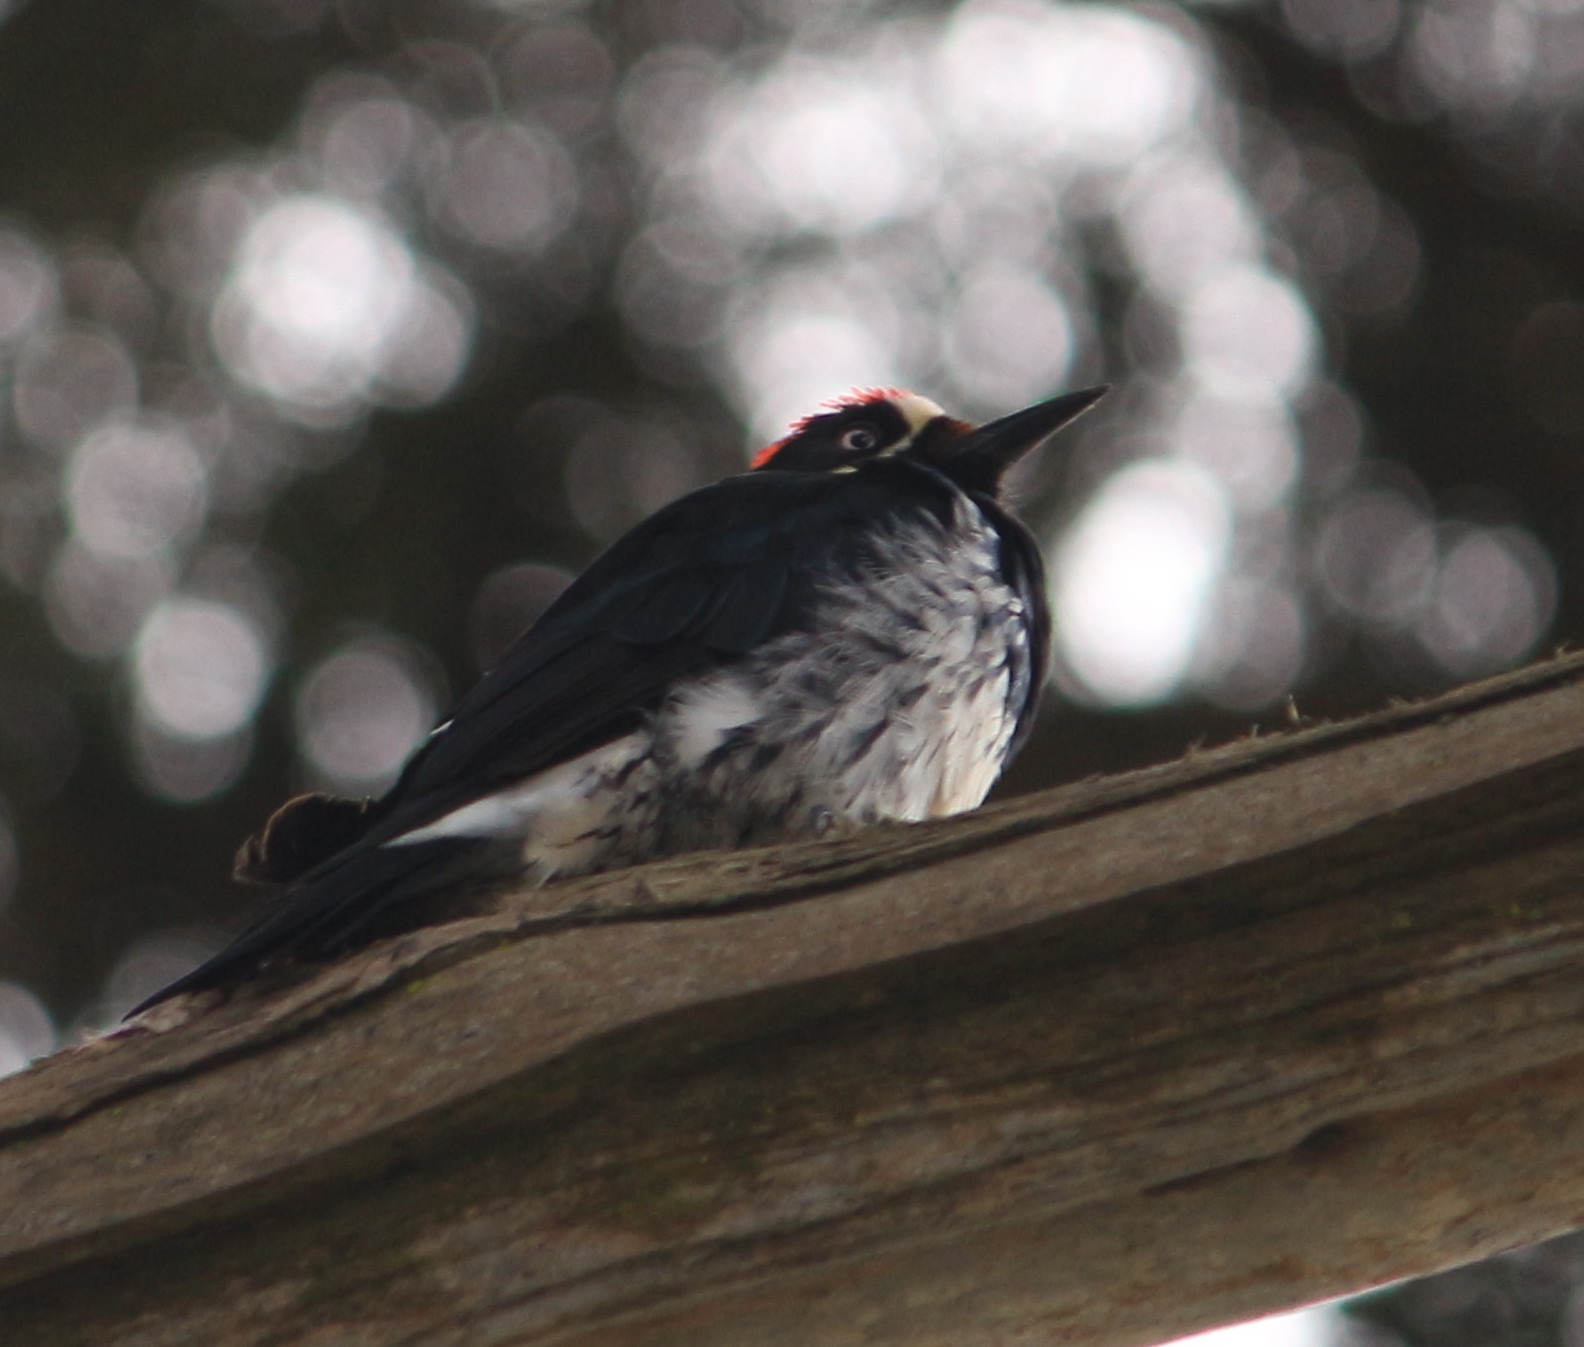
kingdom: Animalia
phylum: Chordata
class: Aves
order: Piciformes
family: Picidae
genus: Melanerpes
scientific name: Melanerpes formicivorus
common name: Acorn woodpecker
